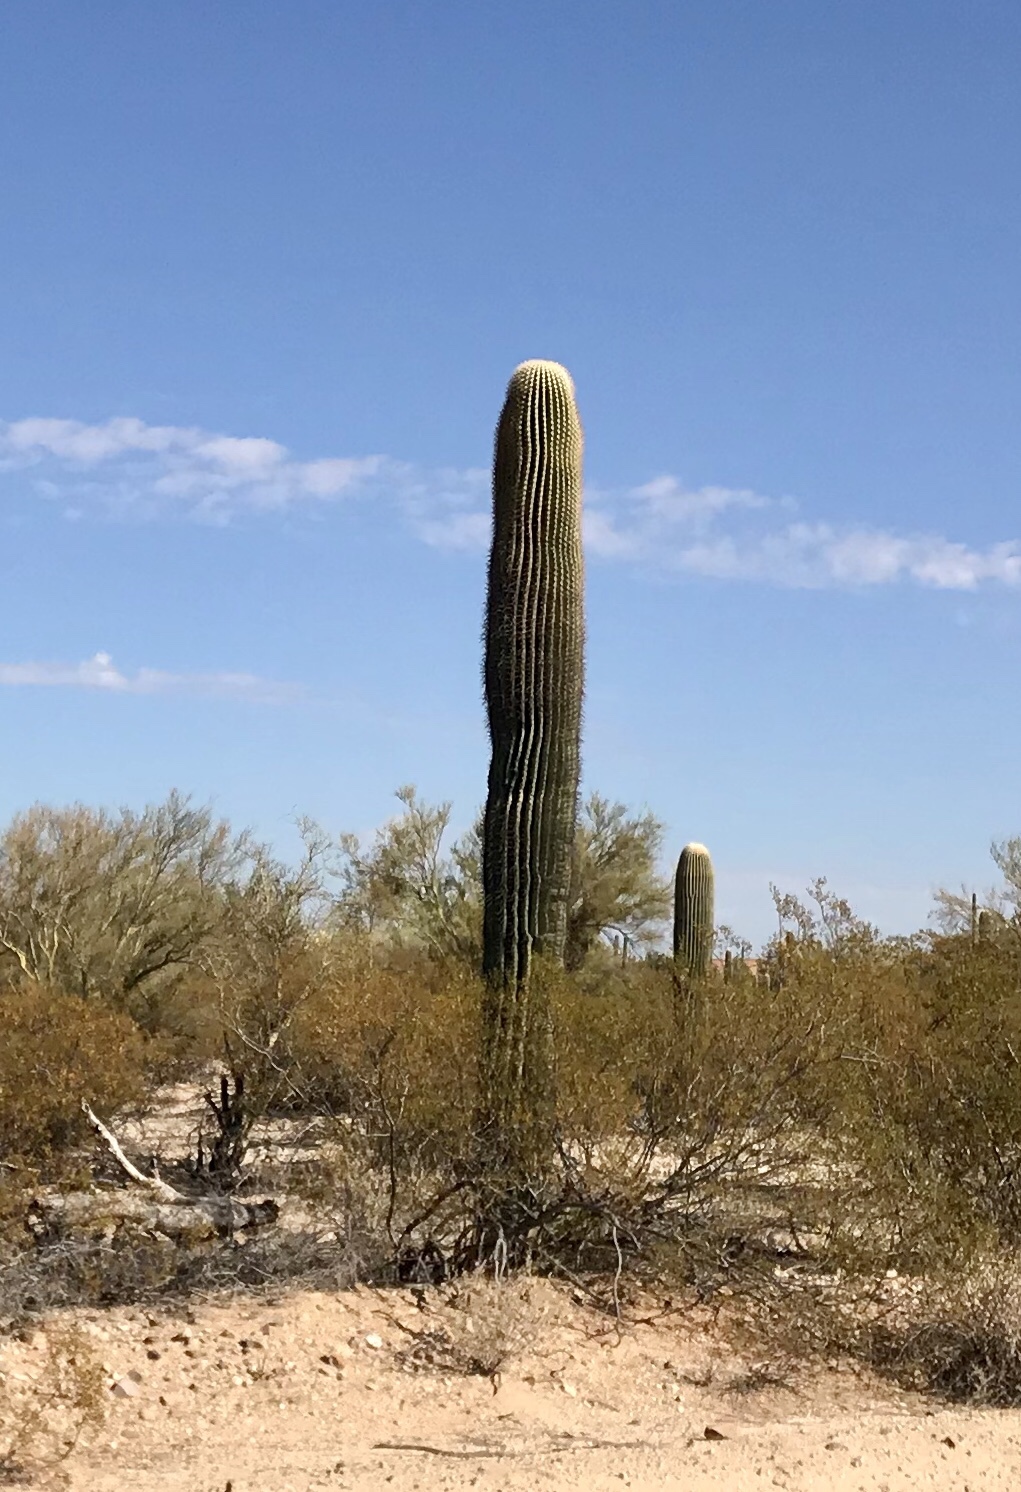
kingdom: Plantae
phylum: Tracheophyta
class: Magnoliopsida
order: Caryophyllales
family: Cactaceae
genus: Carnegiea
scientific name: Carnegiea gigantea
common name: Saguaro
